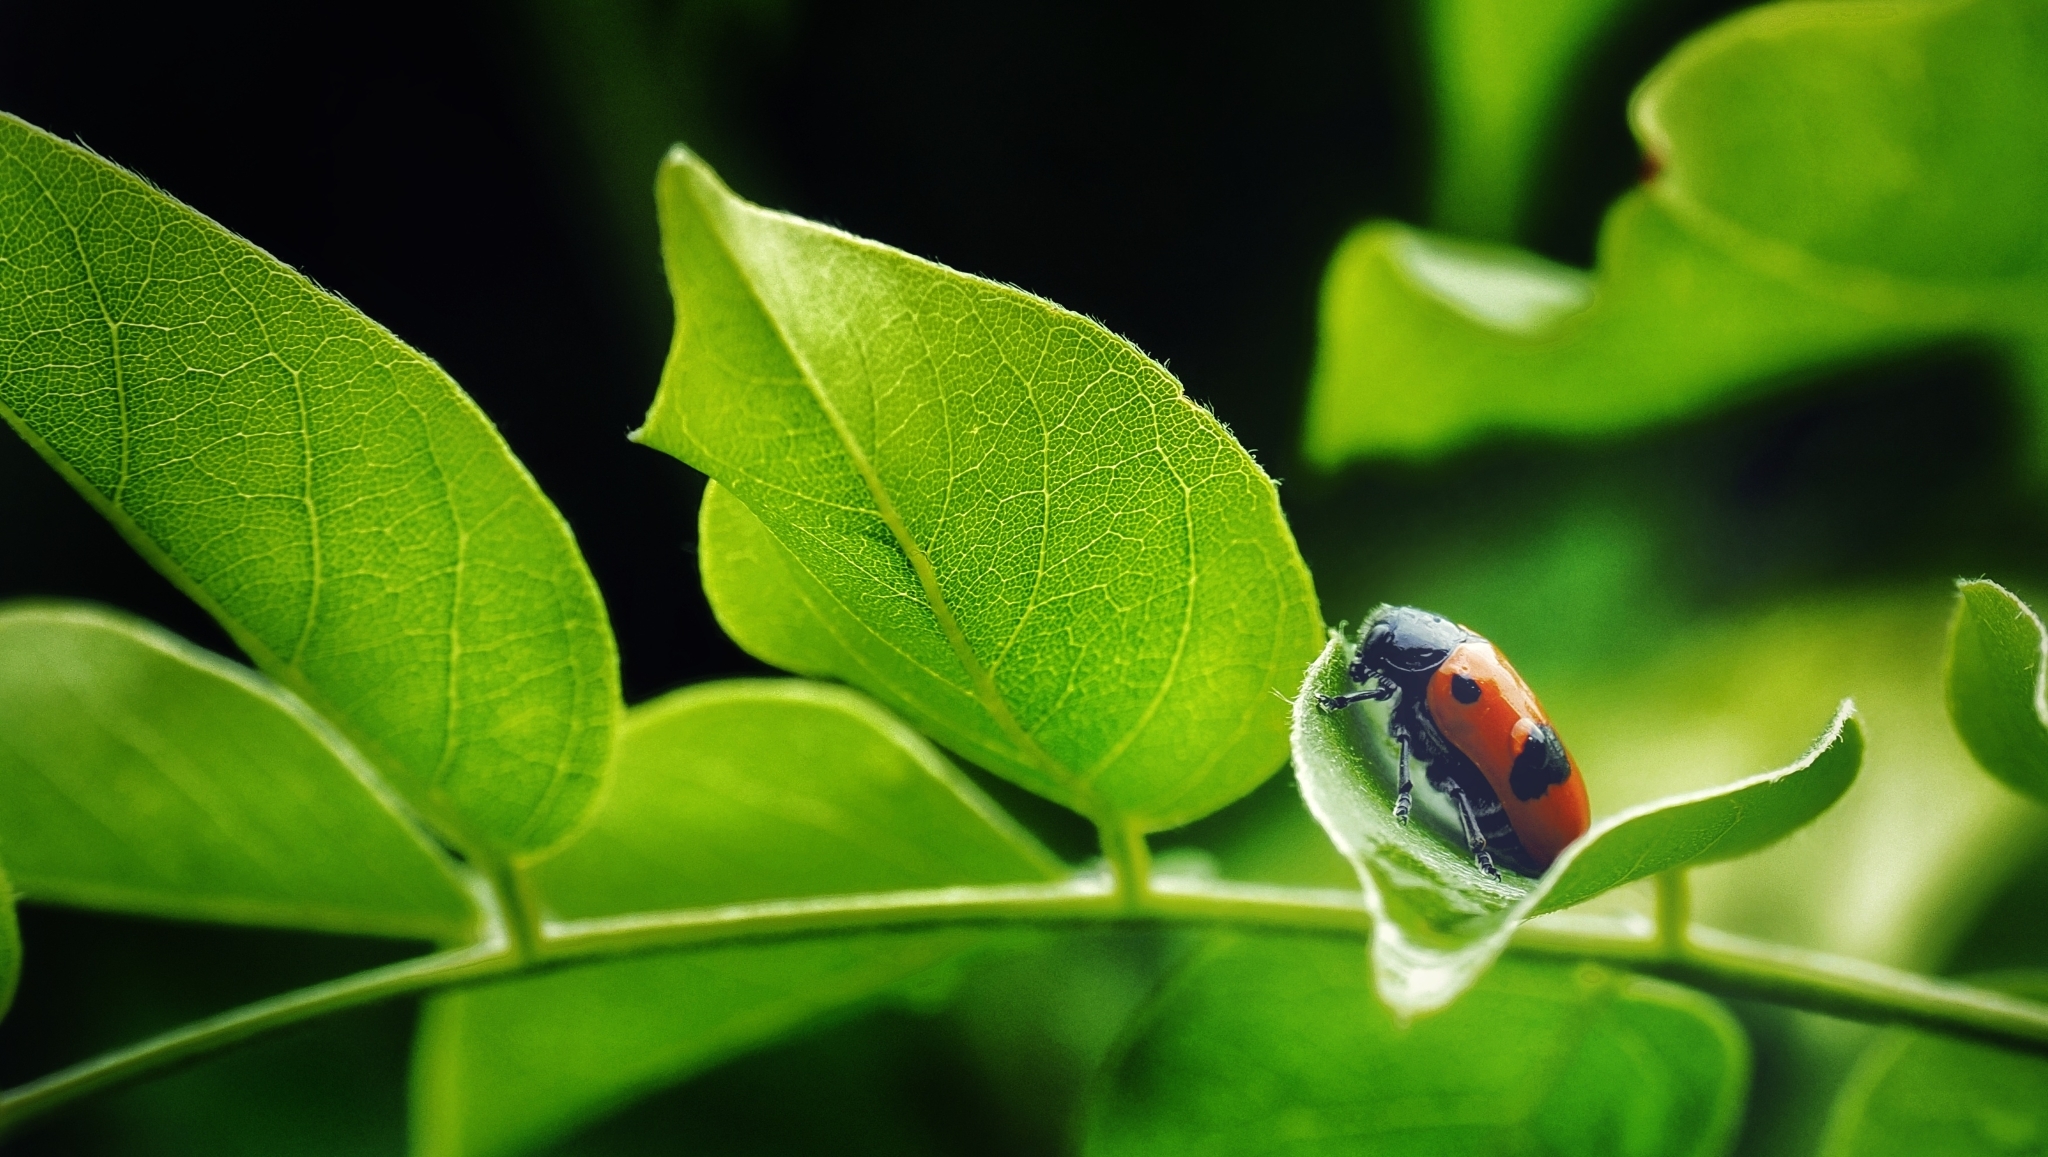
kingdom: Animalia
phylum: Arthropoda
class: Insecta
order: Coleoptera
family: Chrysomelidae
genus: Clytra
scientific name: Clytra laeviuscula
